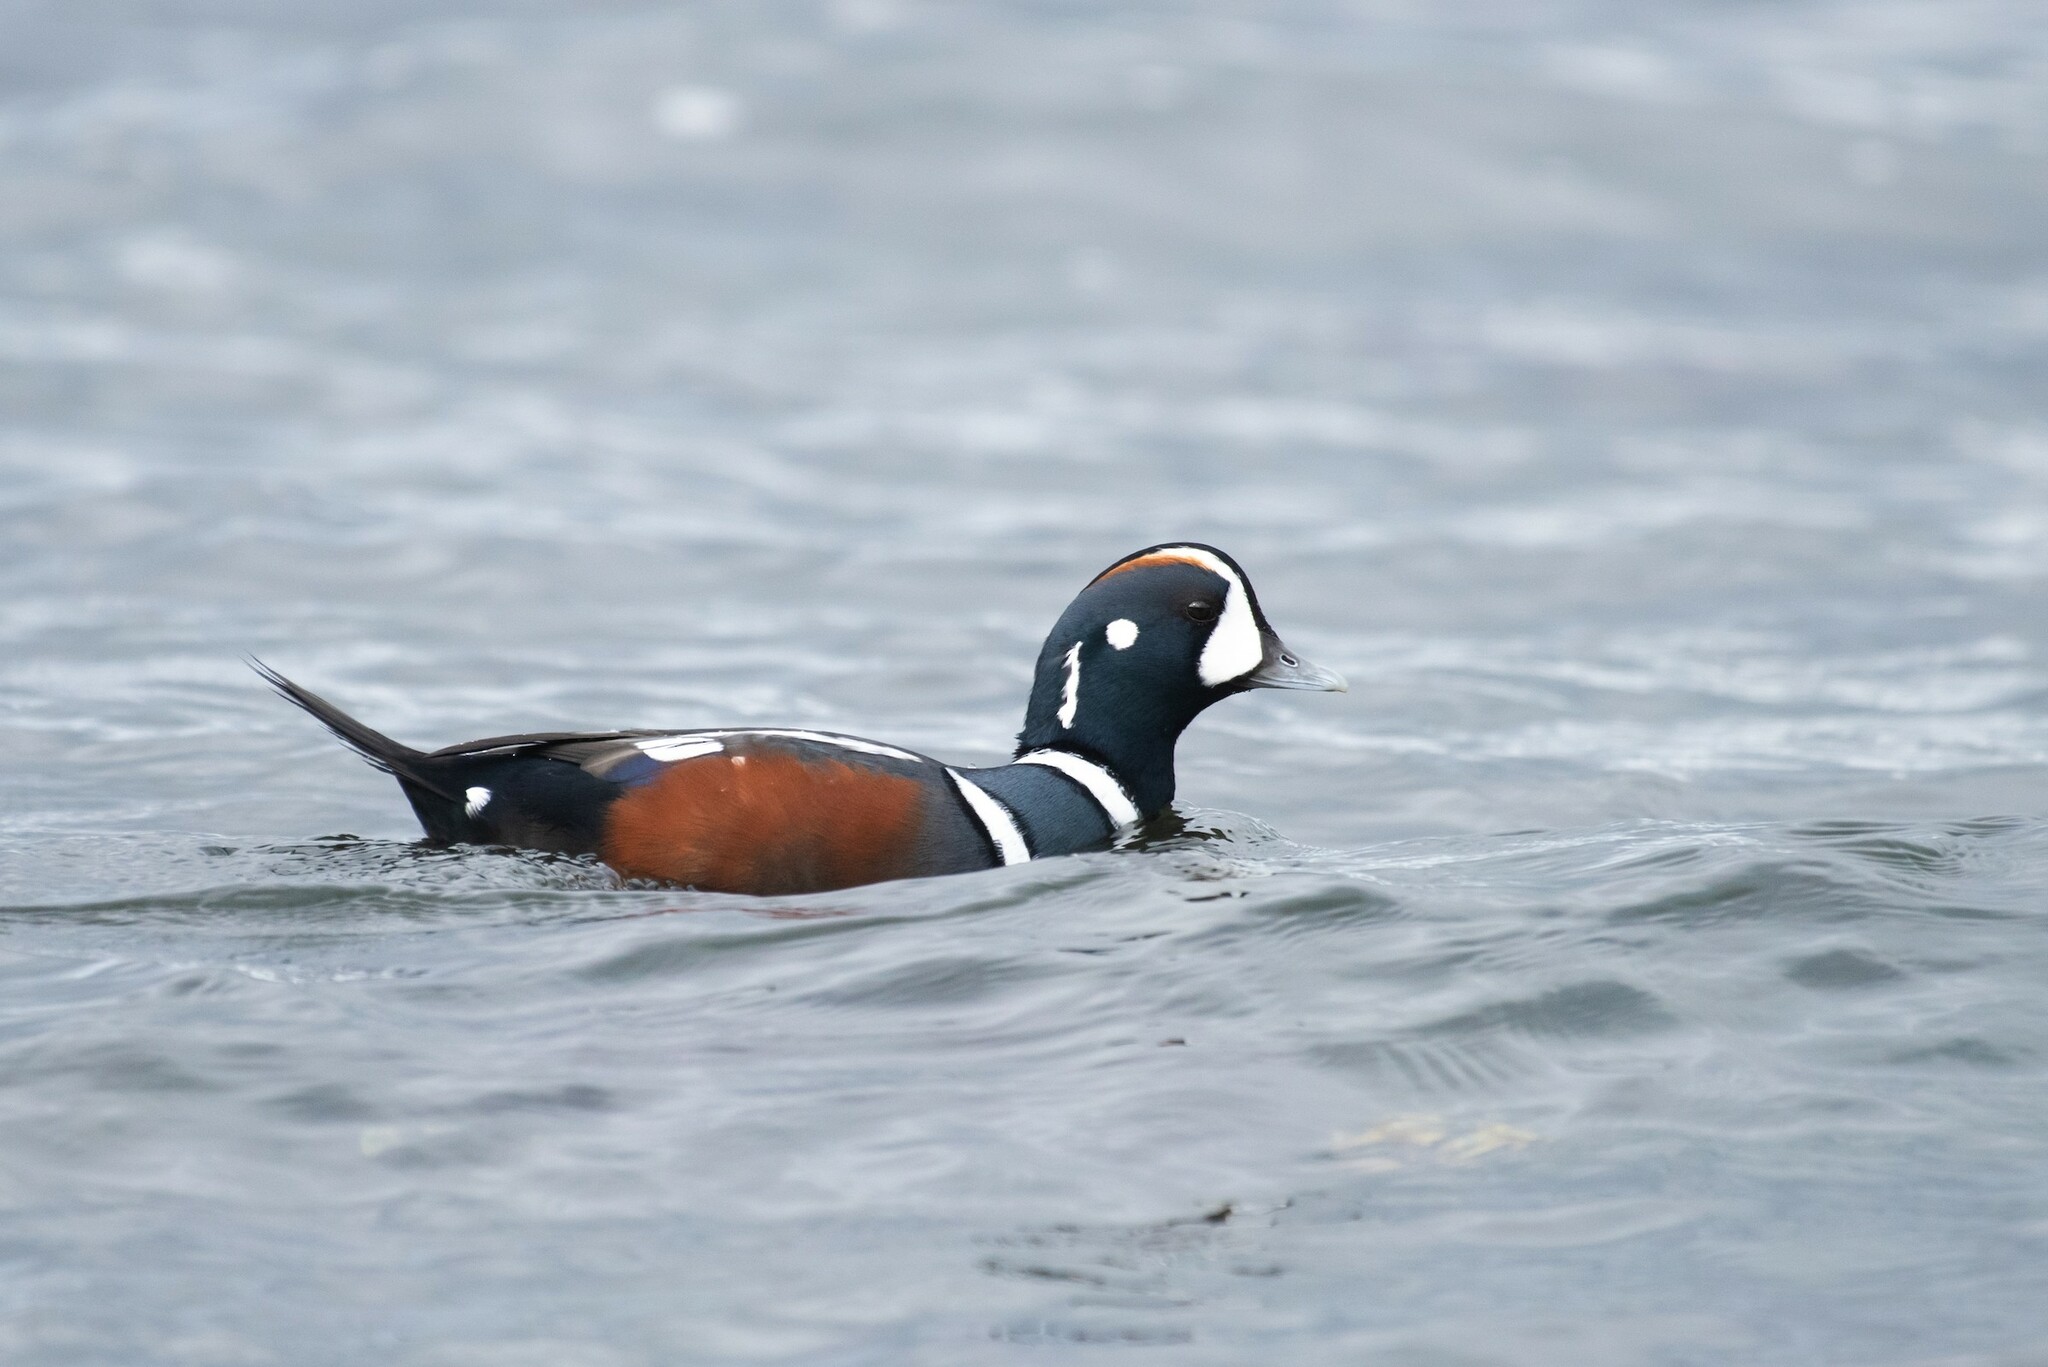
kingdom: Animalia
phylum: Chordata
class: Aves
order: Anseriformes
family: Anatidae
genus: Histrionicus
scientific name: Histrionicus histrionicus
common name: Harlequin duck
